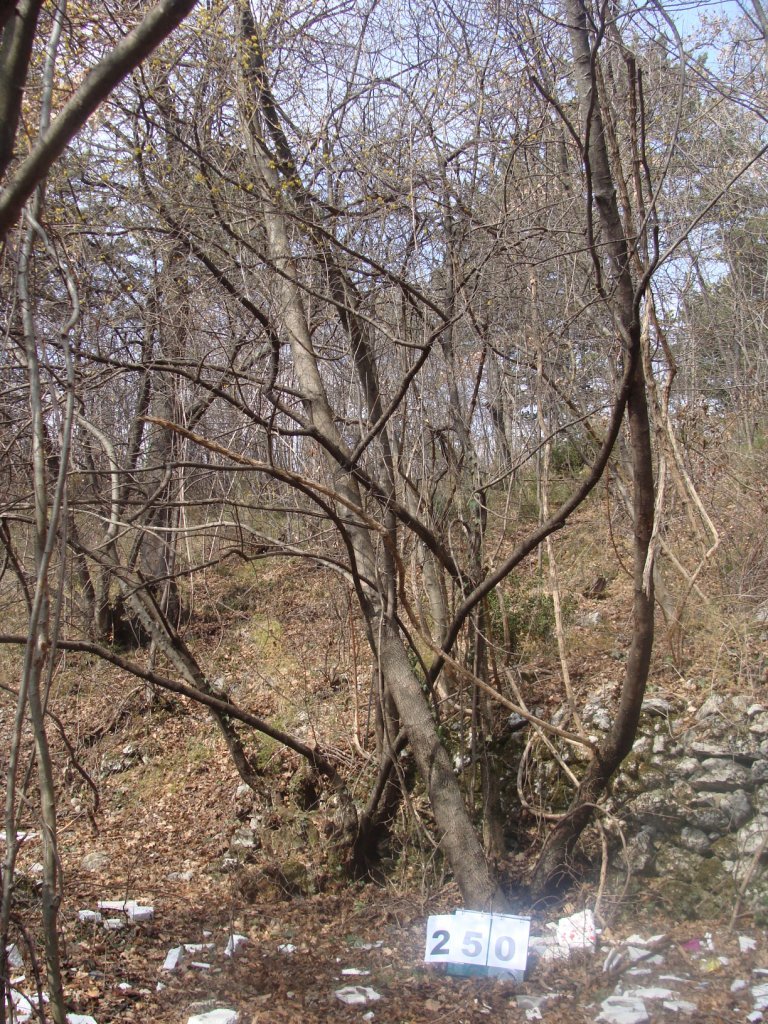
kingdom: Plantae
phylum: Tracheophyta
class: Magnoliopsida
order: Cornales
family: Cornaceae
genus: Cornus
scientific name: Cornus mas
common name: Cornelian-cherry
